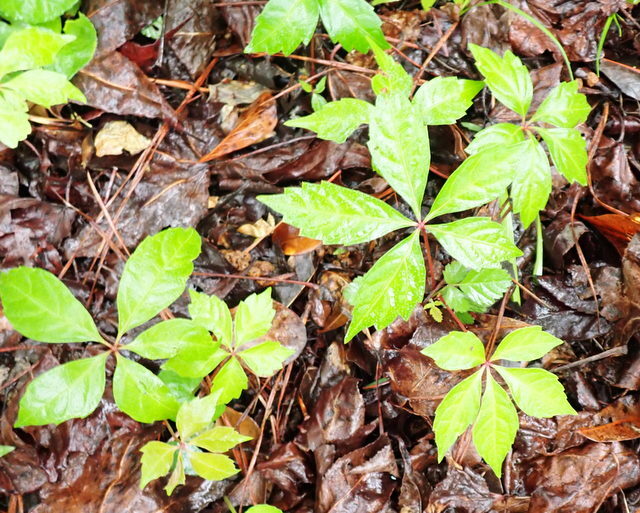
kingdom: Plantae
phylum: Tracheophyta
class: Magnoliopsida
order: Vitales
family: Vitaceae
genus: Parthenocissus
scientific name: Parthenocissus quinquefolia
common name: Virginia-creeper
